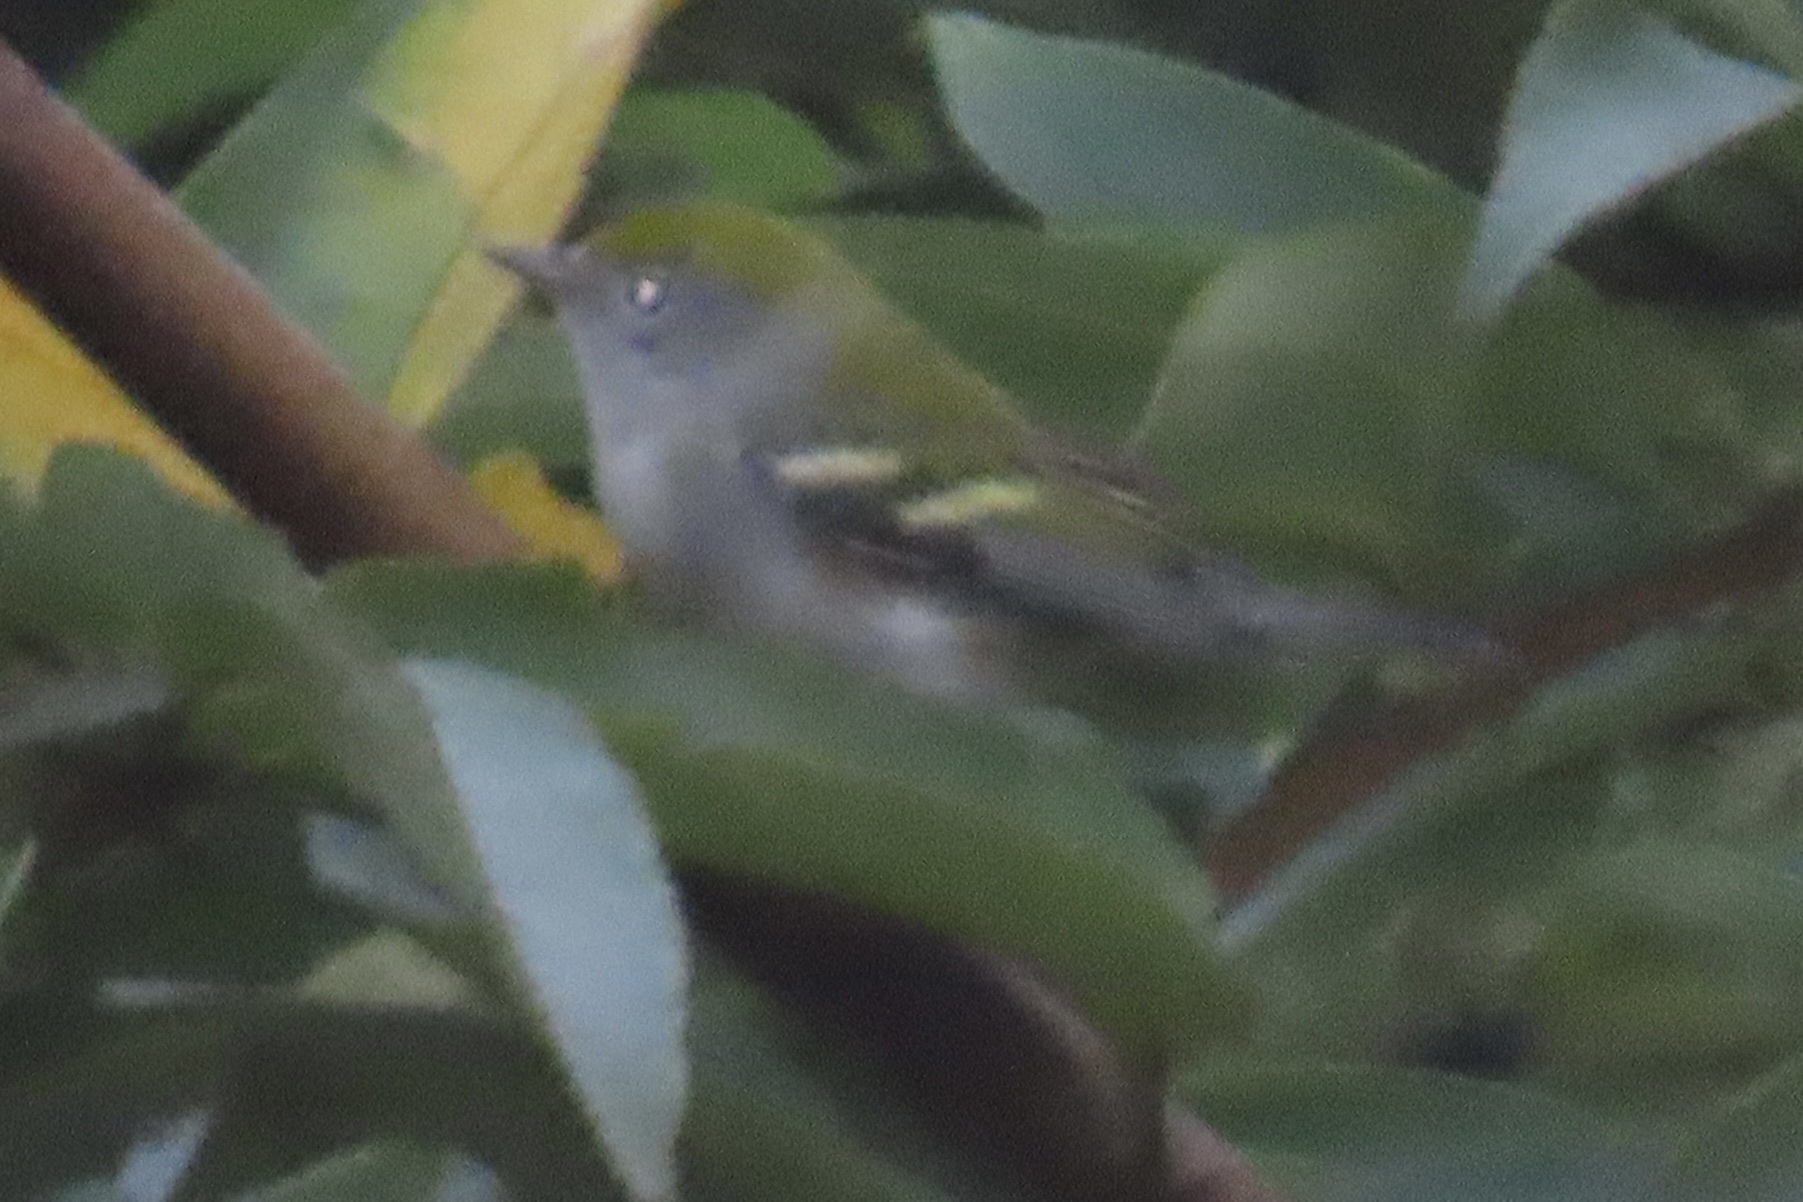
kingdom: Animalia
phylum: Chordata
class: Aves
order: Passeriformes
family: Parulidae
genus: Setophaga
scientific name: Setophaga pensylvanica
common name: Chestnut-sided warbler
